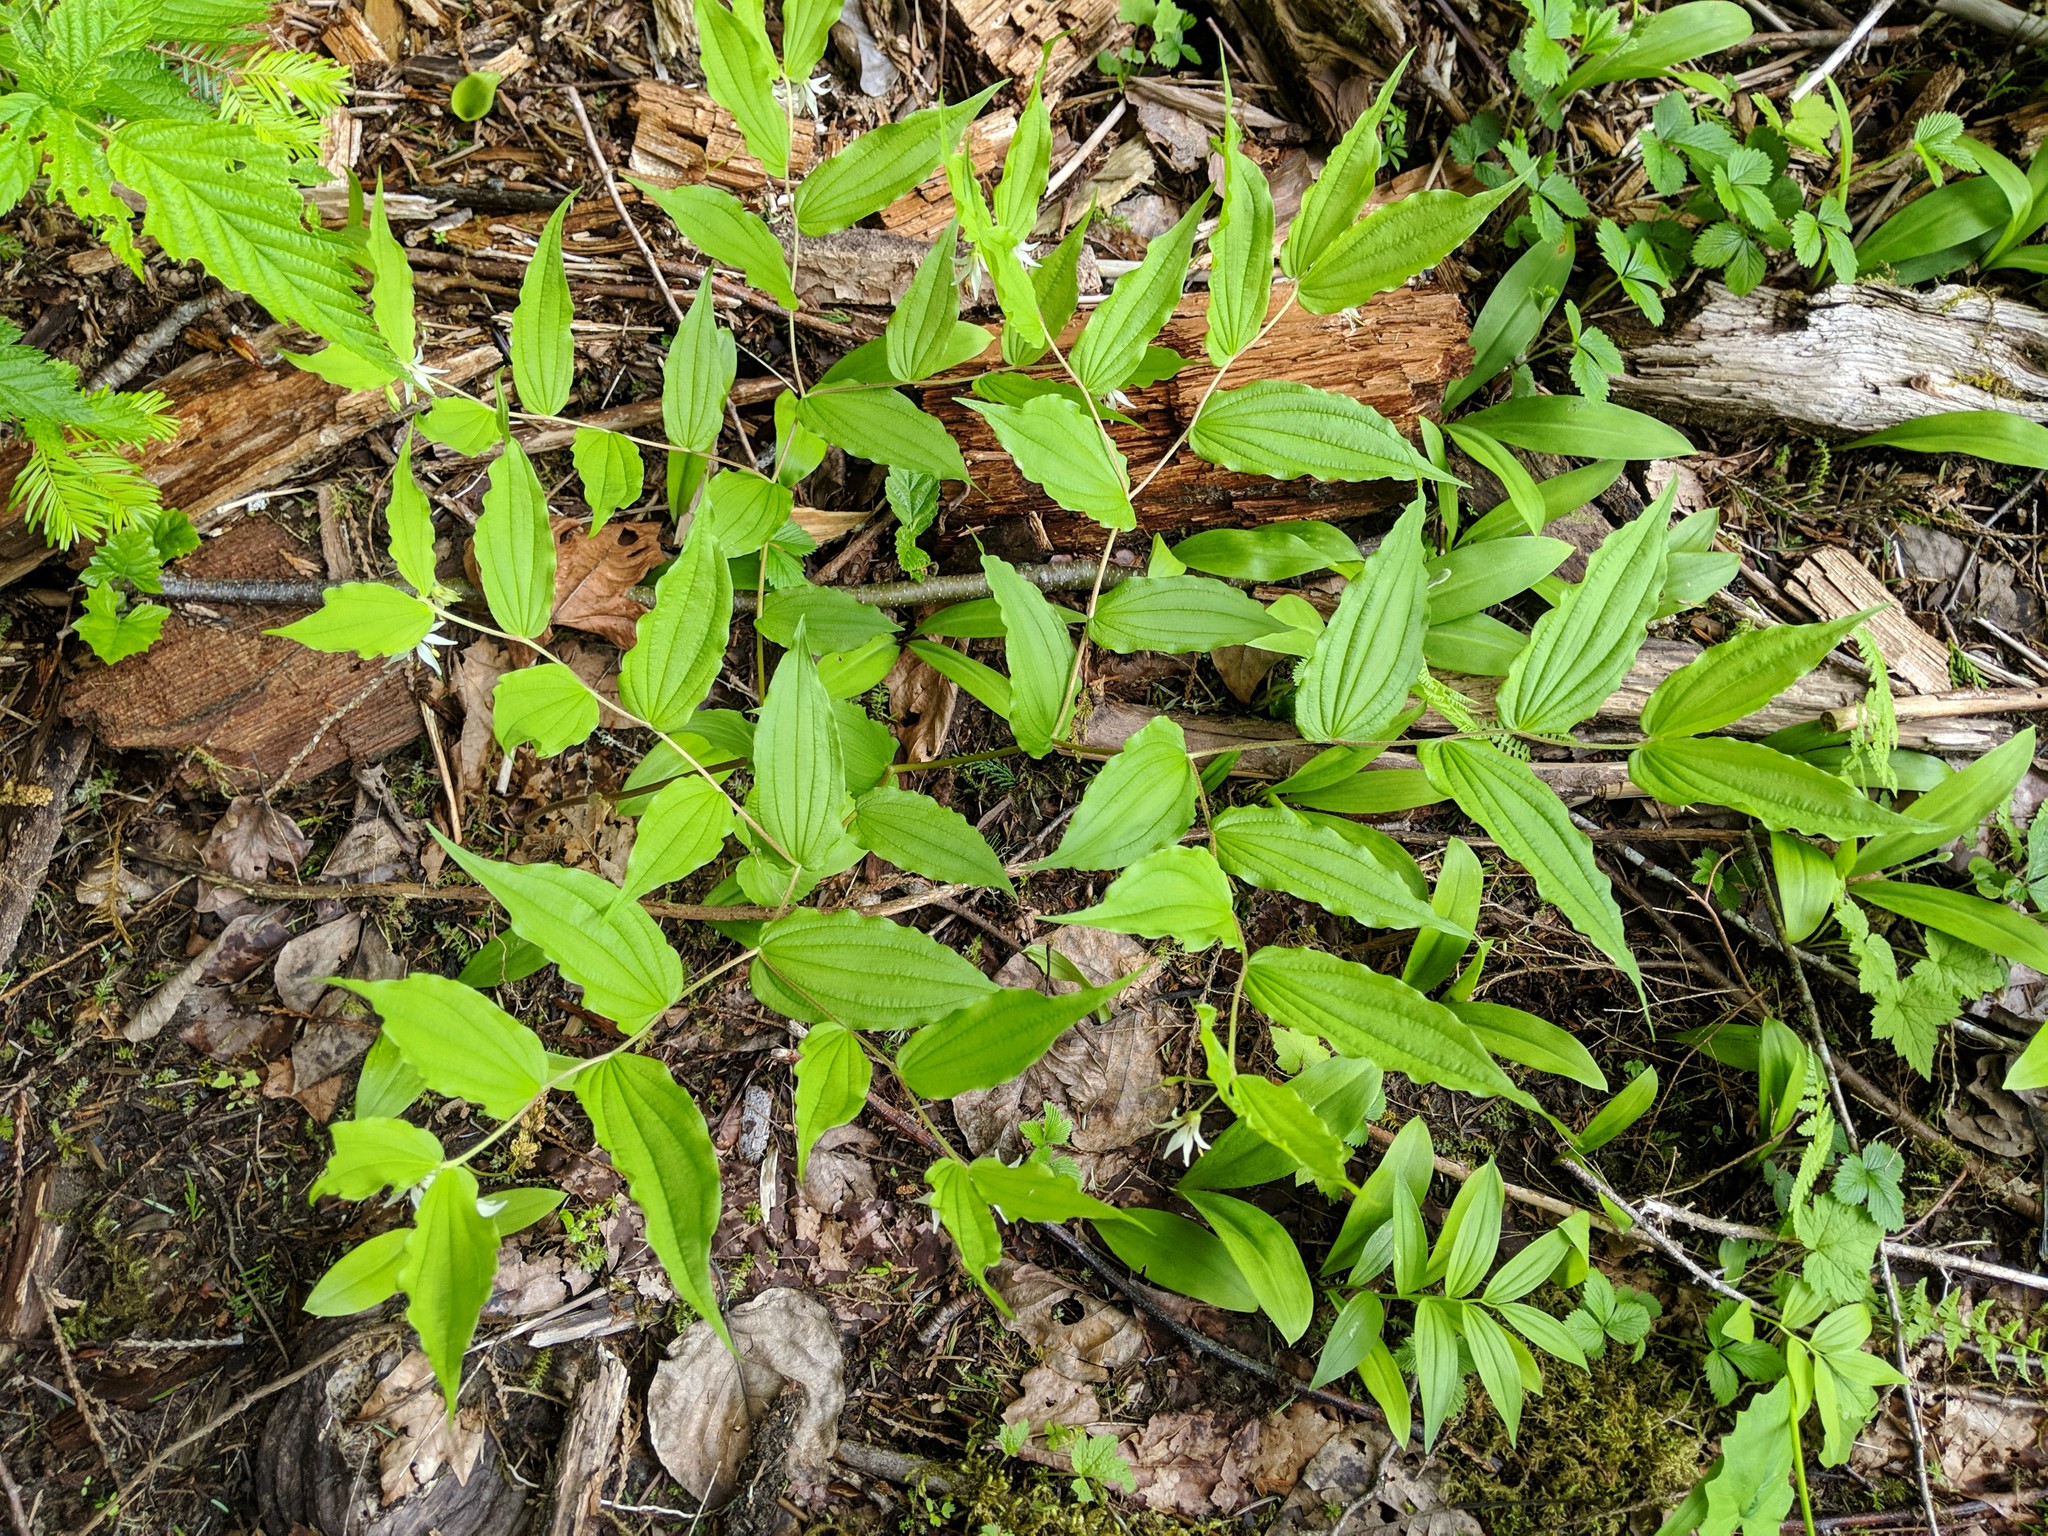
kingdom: Plantae
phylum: Tracheophyta
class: Liliopsida
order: Liliales
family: Liliaceae
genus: Prosartes
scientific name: Prosartes hookeri
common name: Fairy-bells
